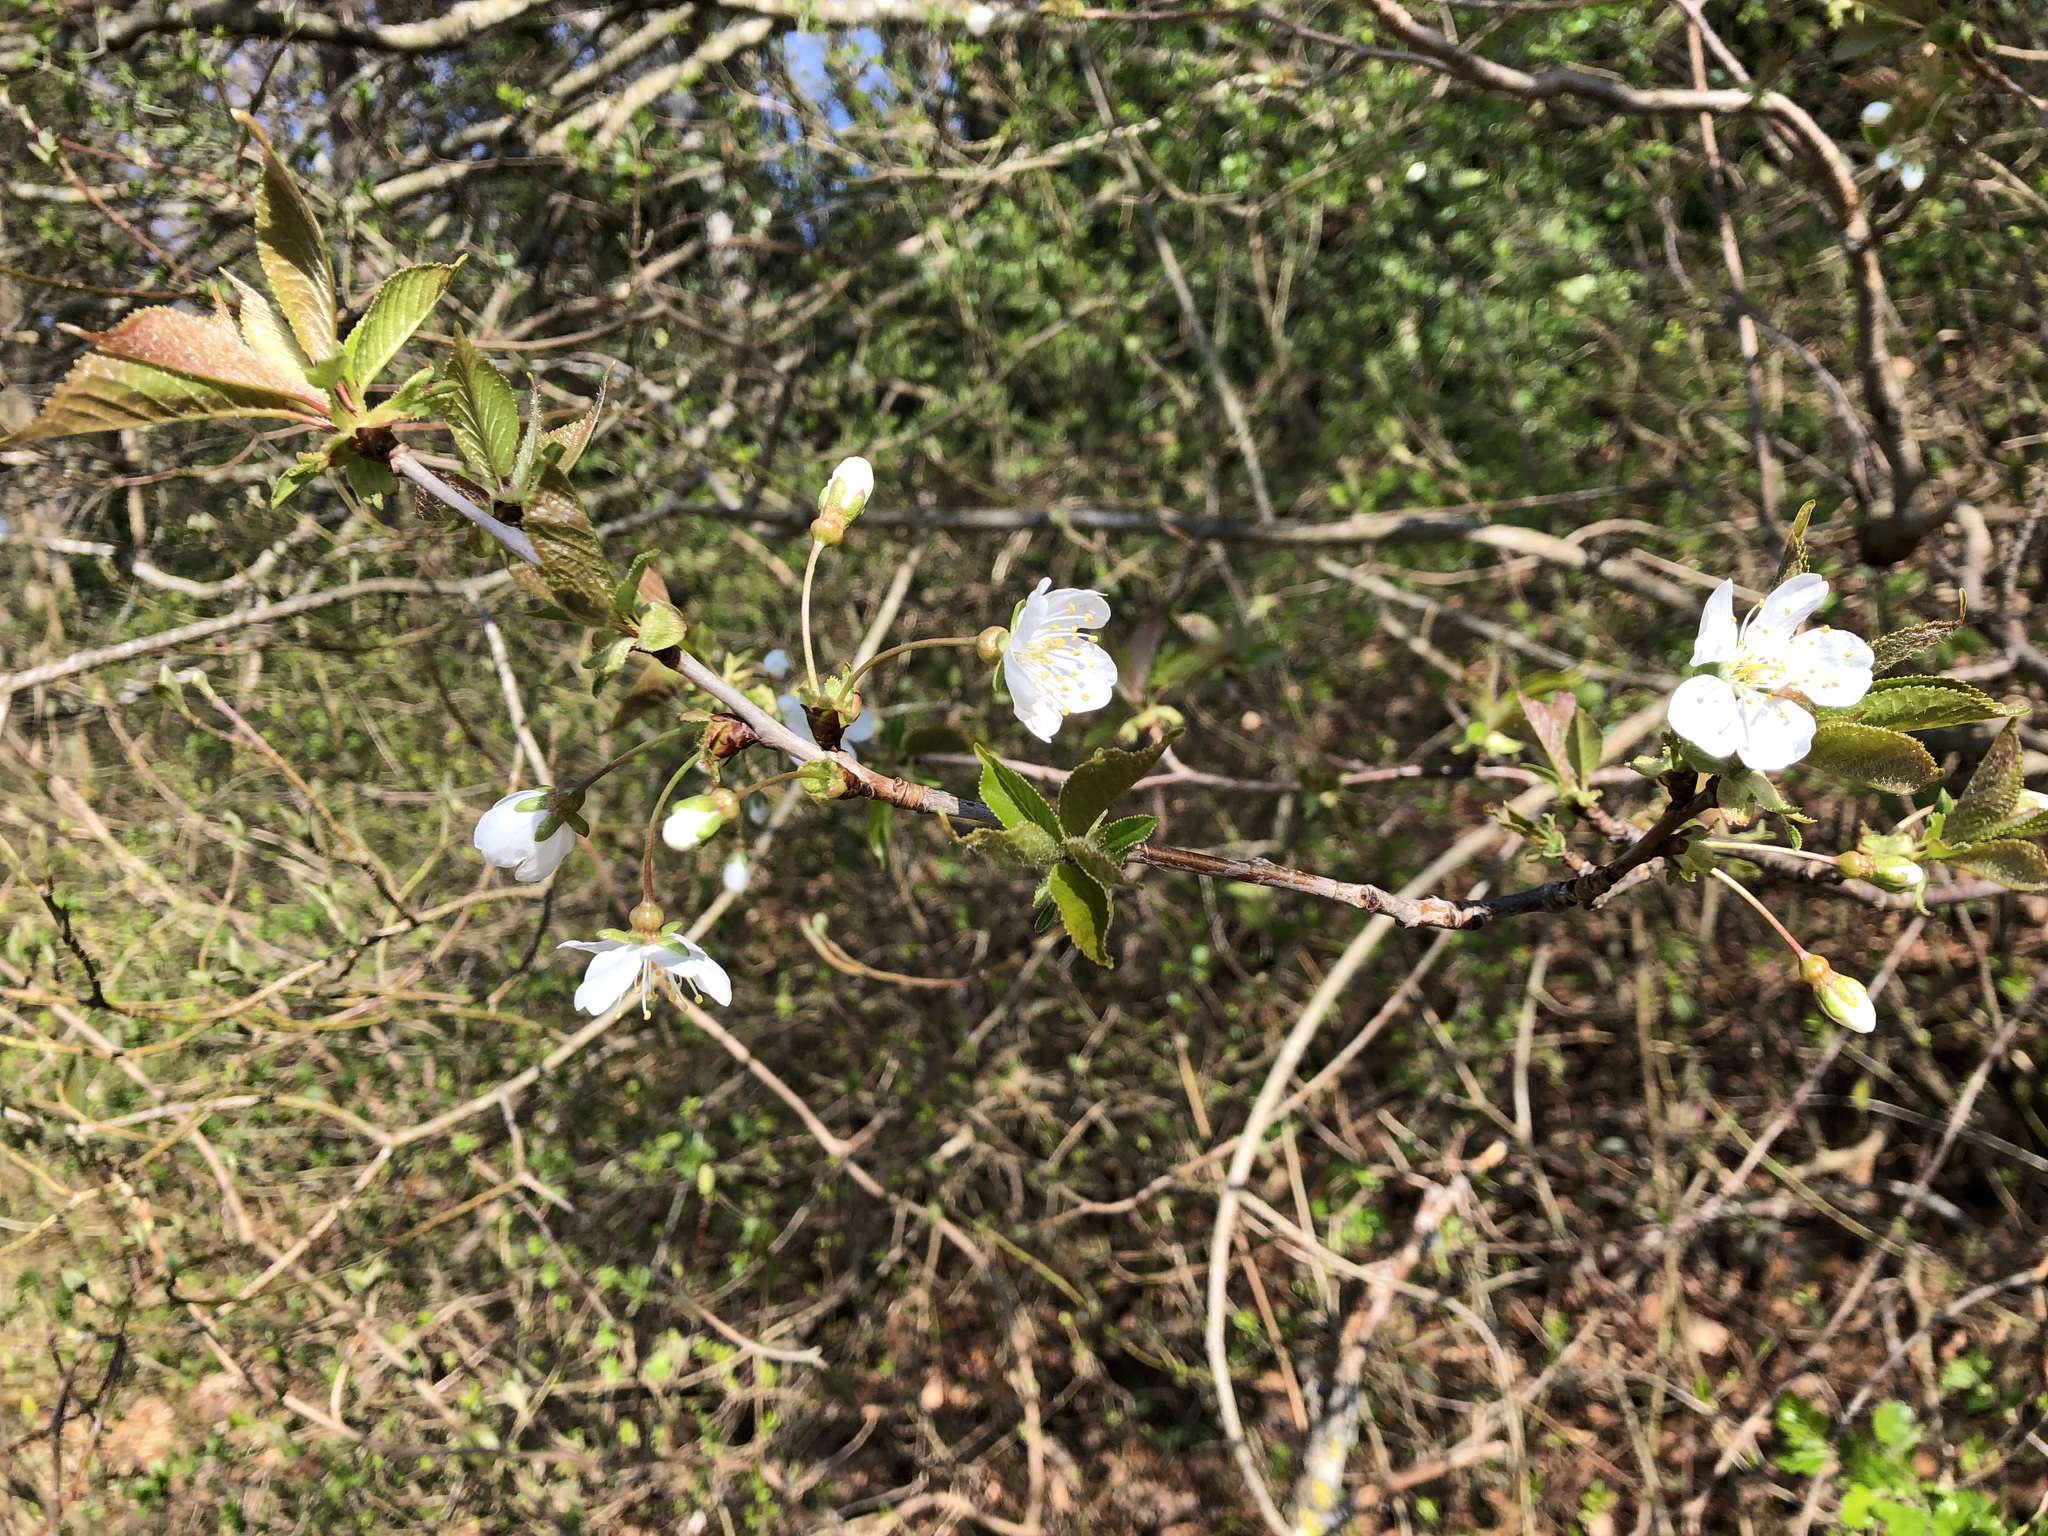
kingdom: Plantae
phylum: Tracheophyta
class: Magnoliopsida
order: Rosales
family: Rosaceae
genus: Prunus
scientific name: Prunus avium
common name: Sweet cherry
